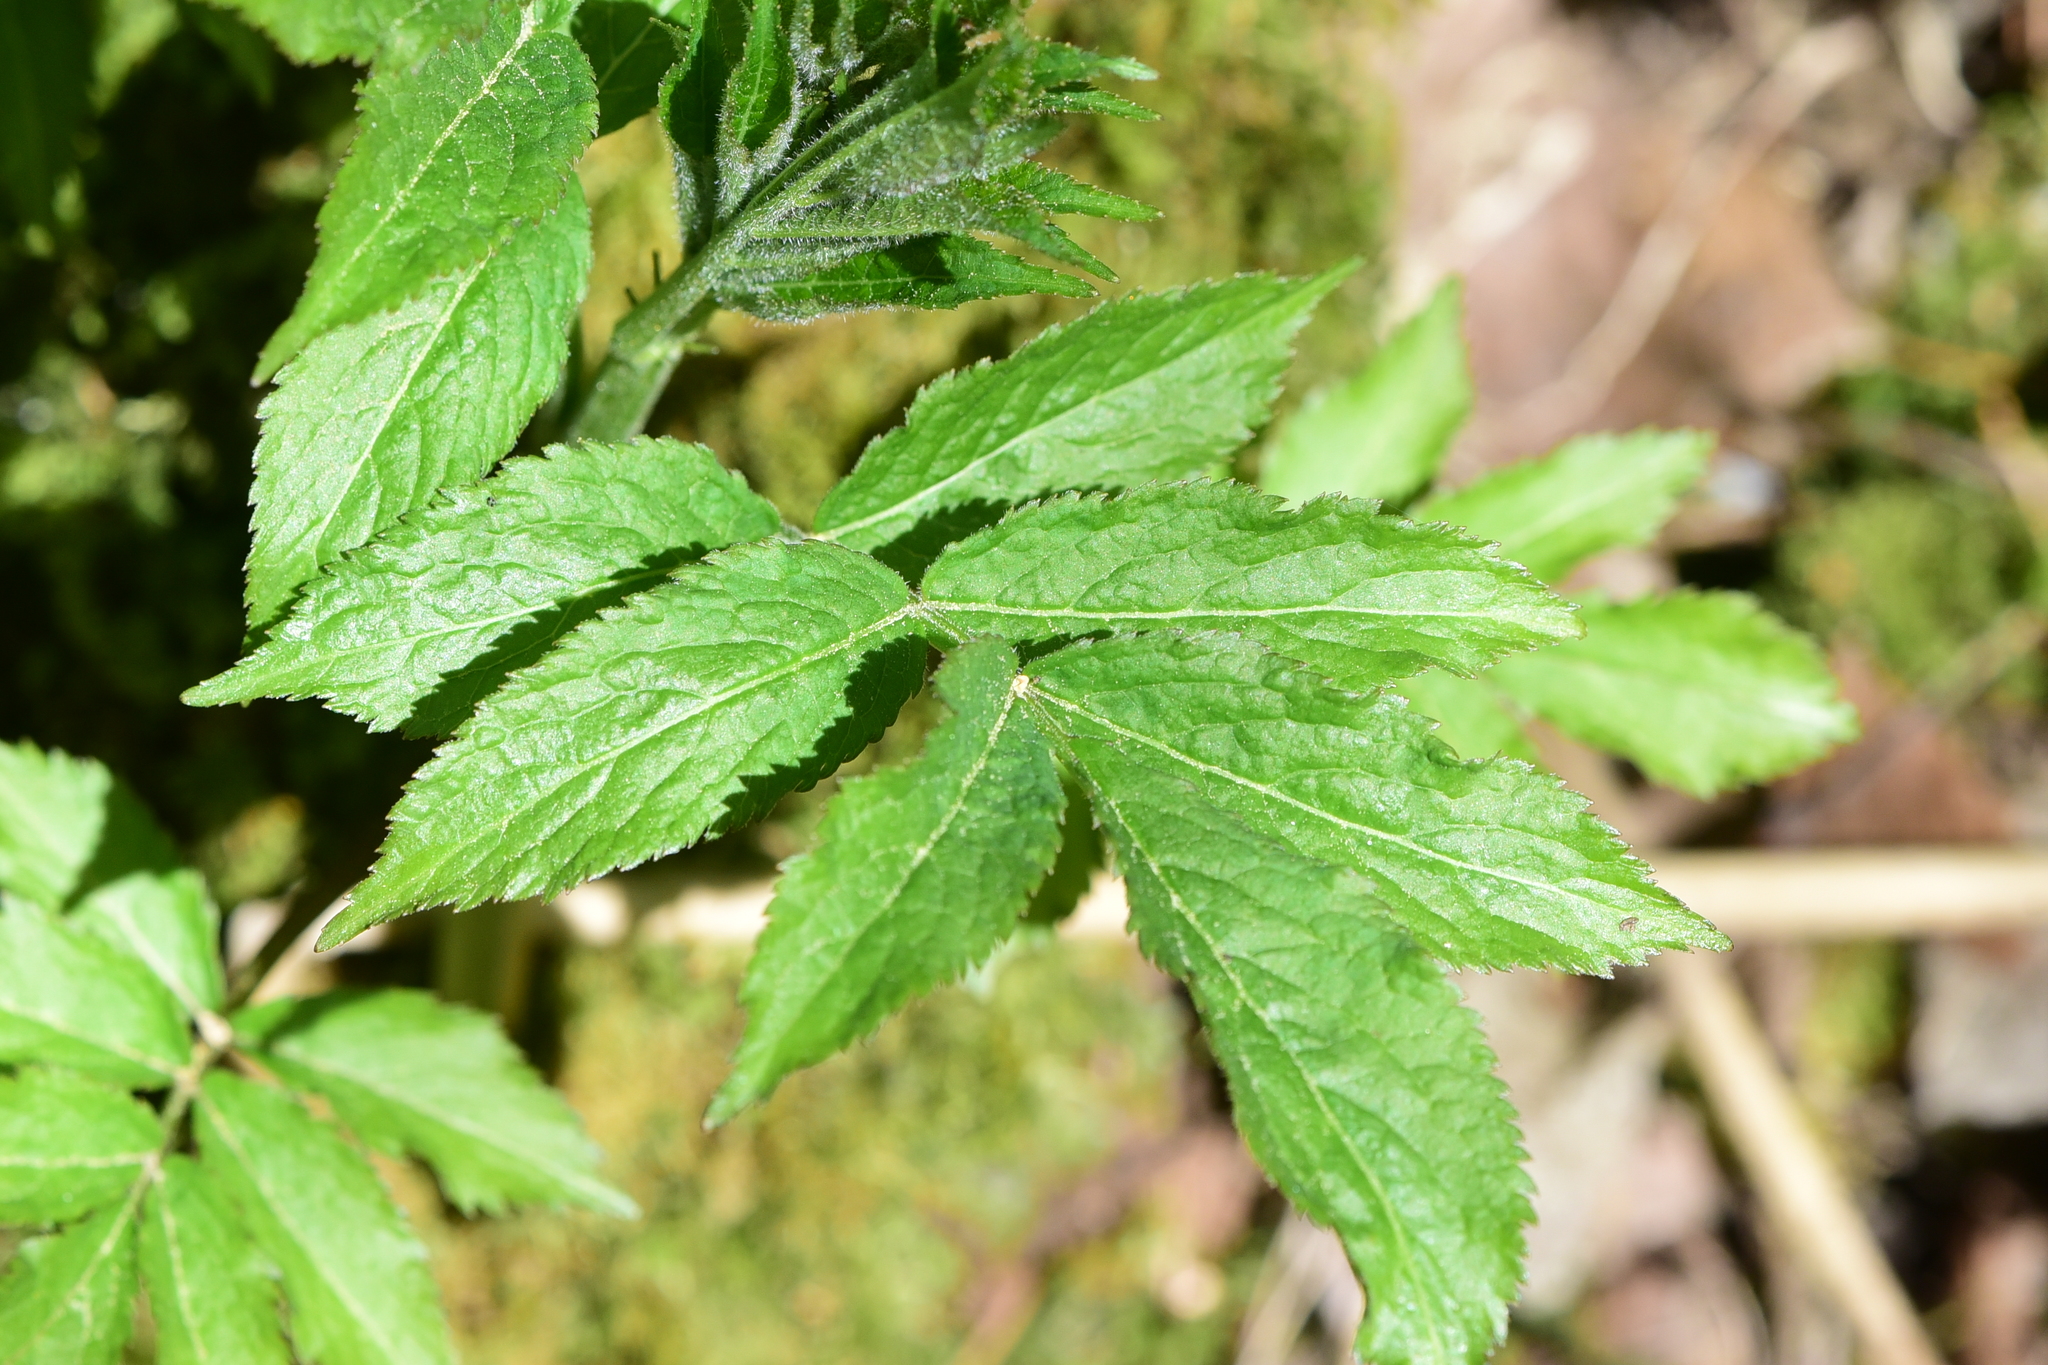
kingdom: Plantae
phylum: Tracheophyta
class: Magnoliopsida
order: Dipsacales
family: Viburnaceae
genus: Sambucus
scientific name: Sambucus racemosa
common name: Red-berried elder
